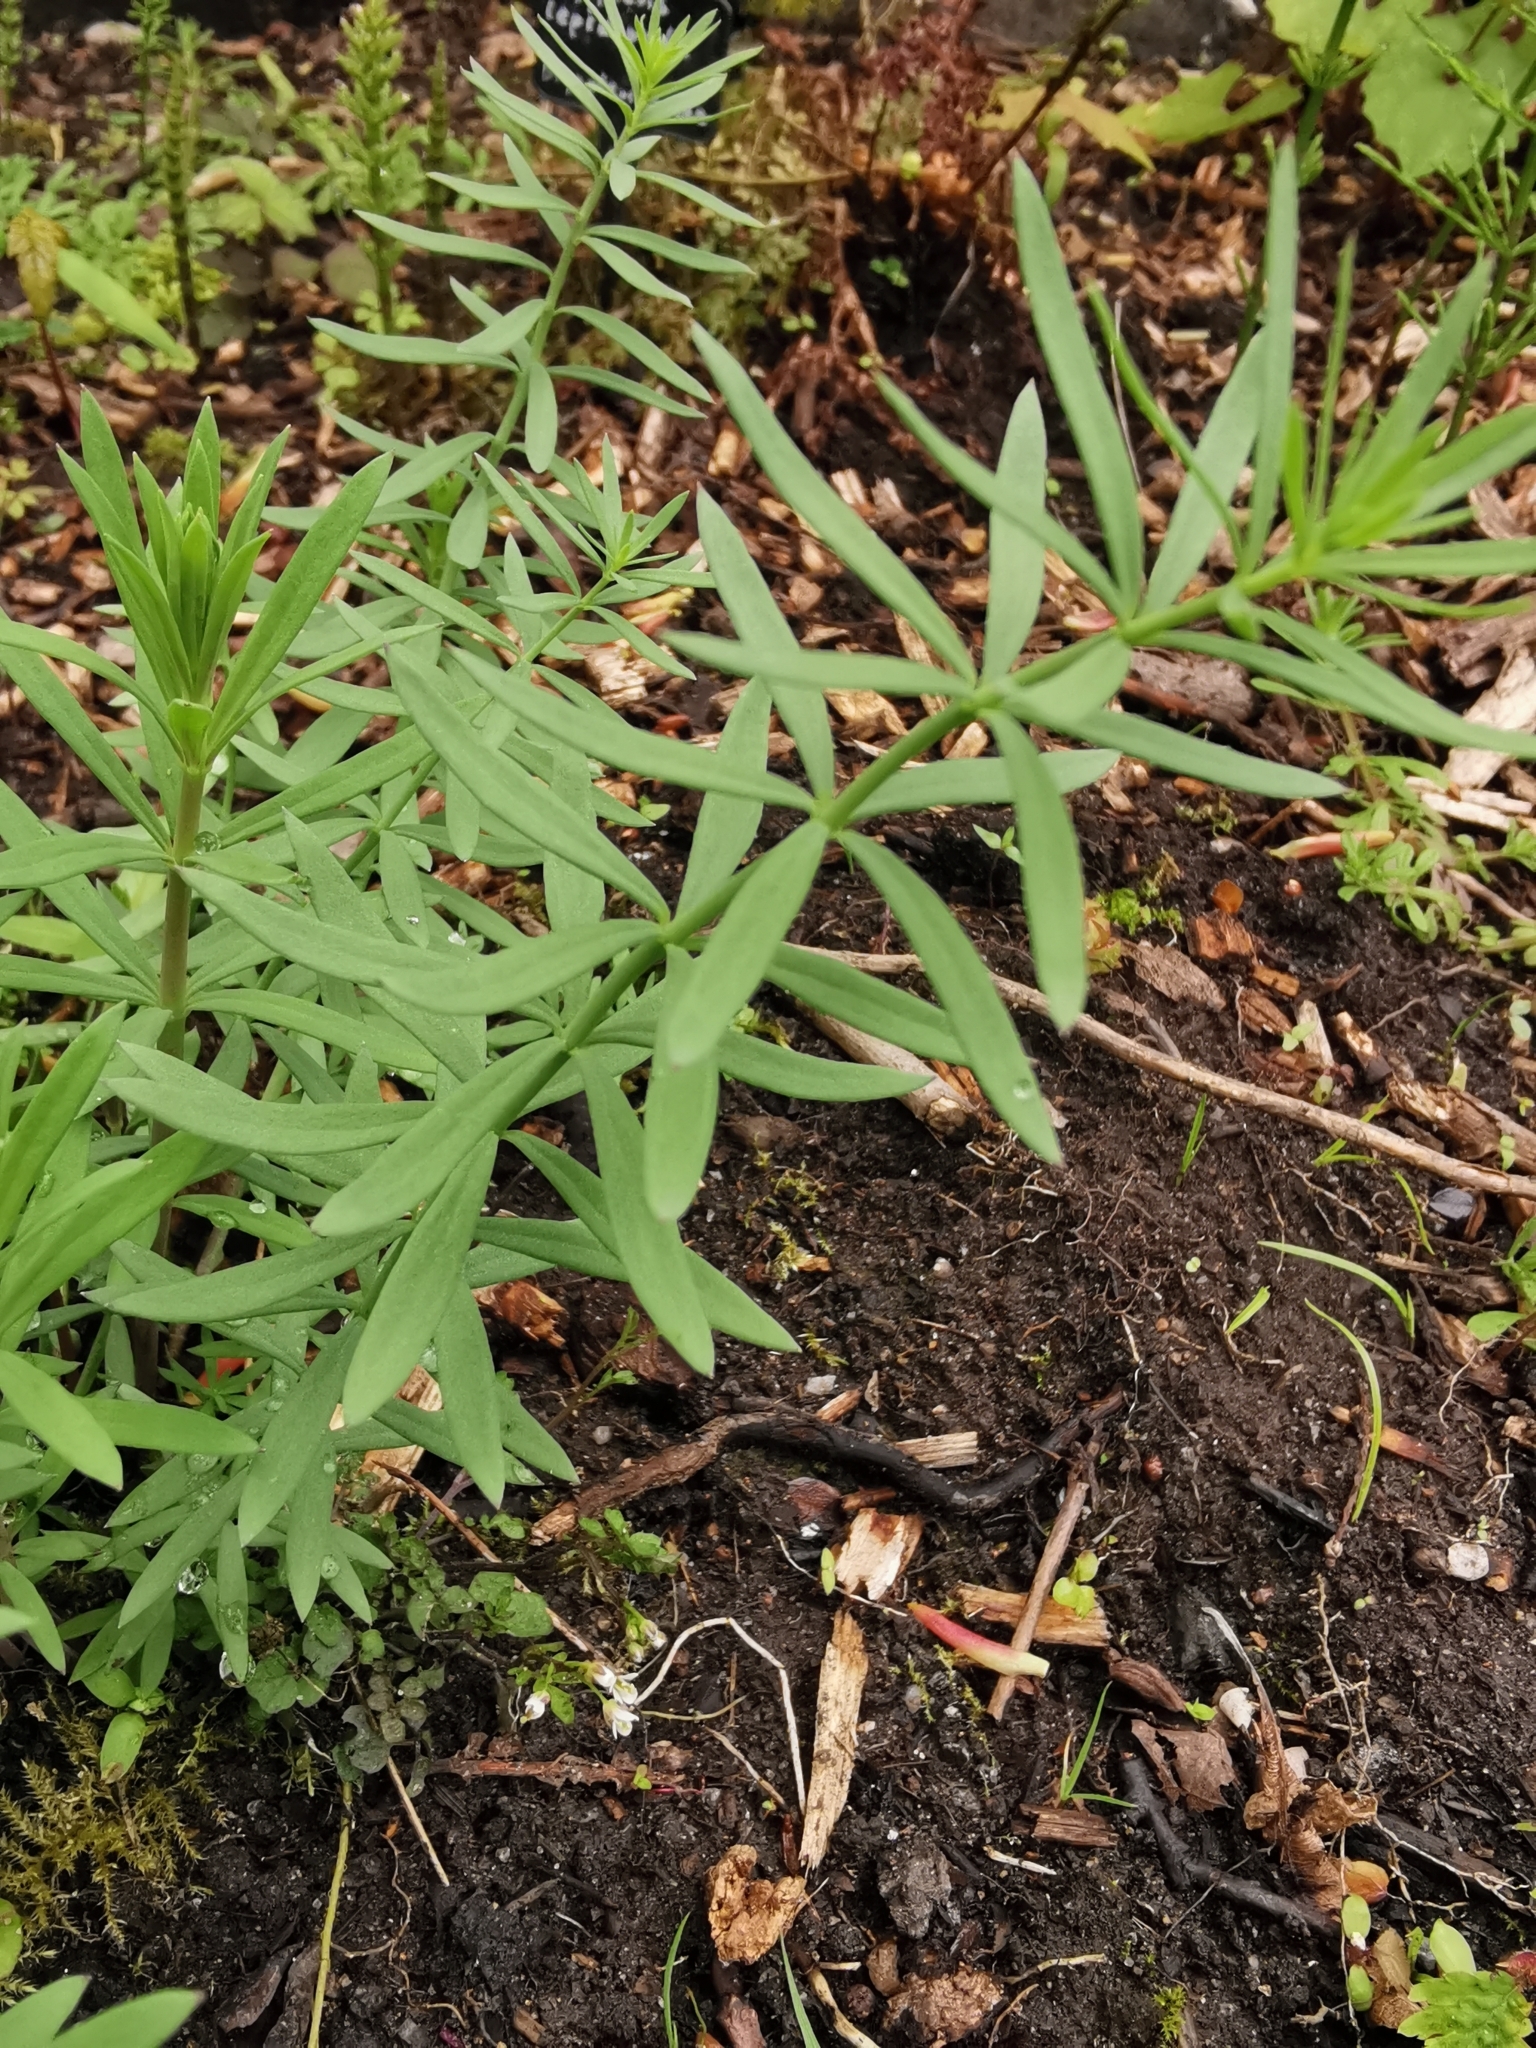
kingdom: Plantae
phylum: Tracheophyta
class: Magnoliopsida
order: Lamiales
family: Plantaginaceae
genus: Linaria
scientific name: Linaria purpurea
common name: Purple toadflax
